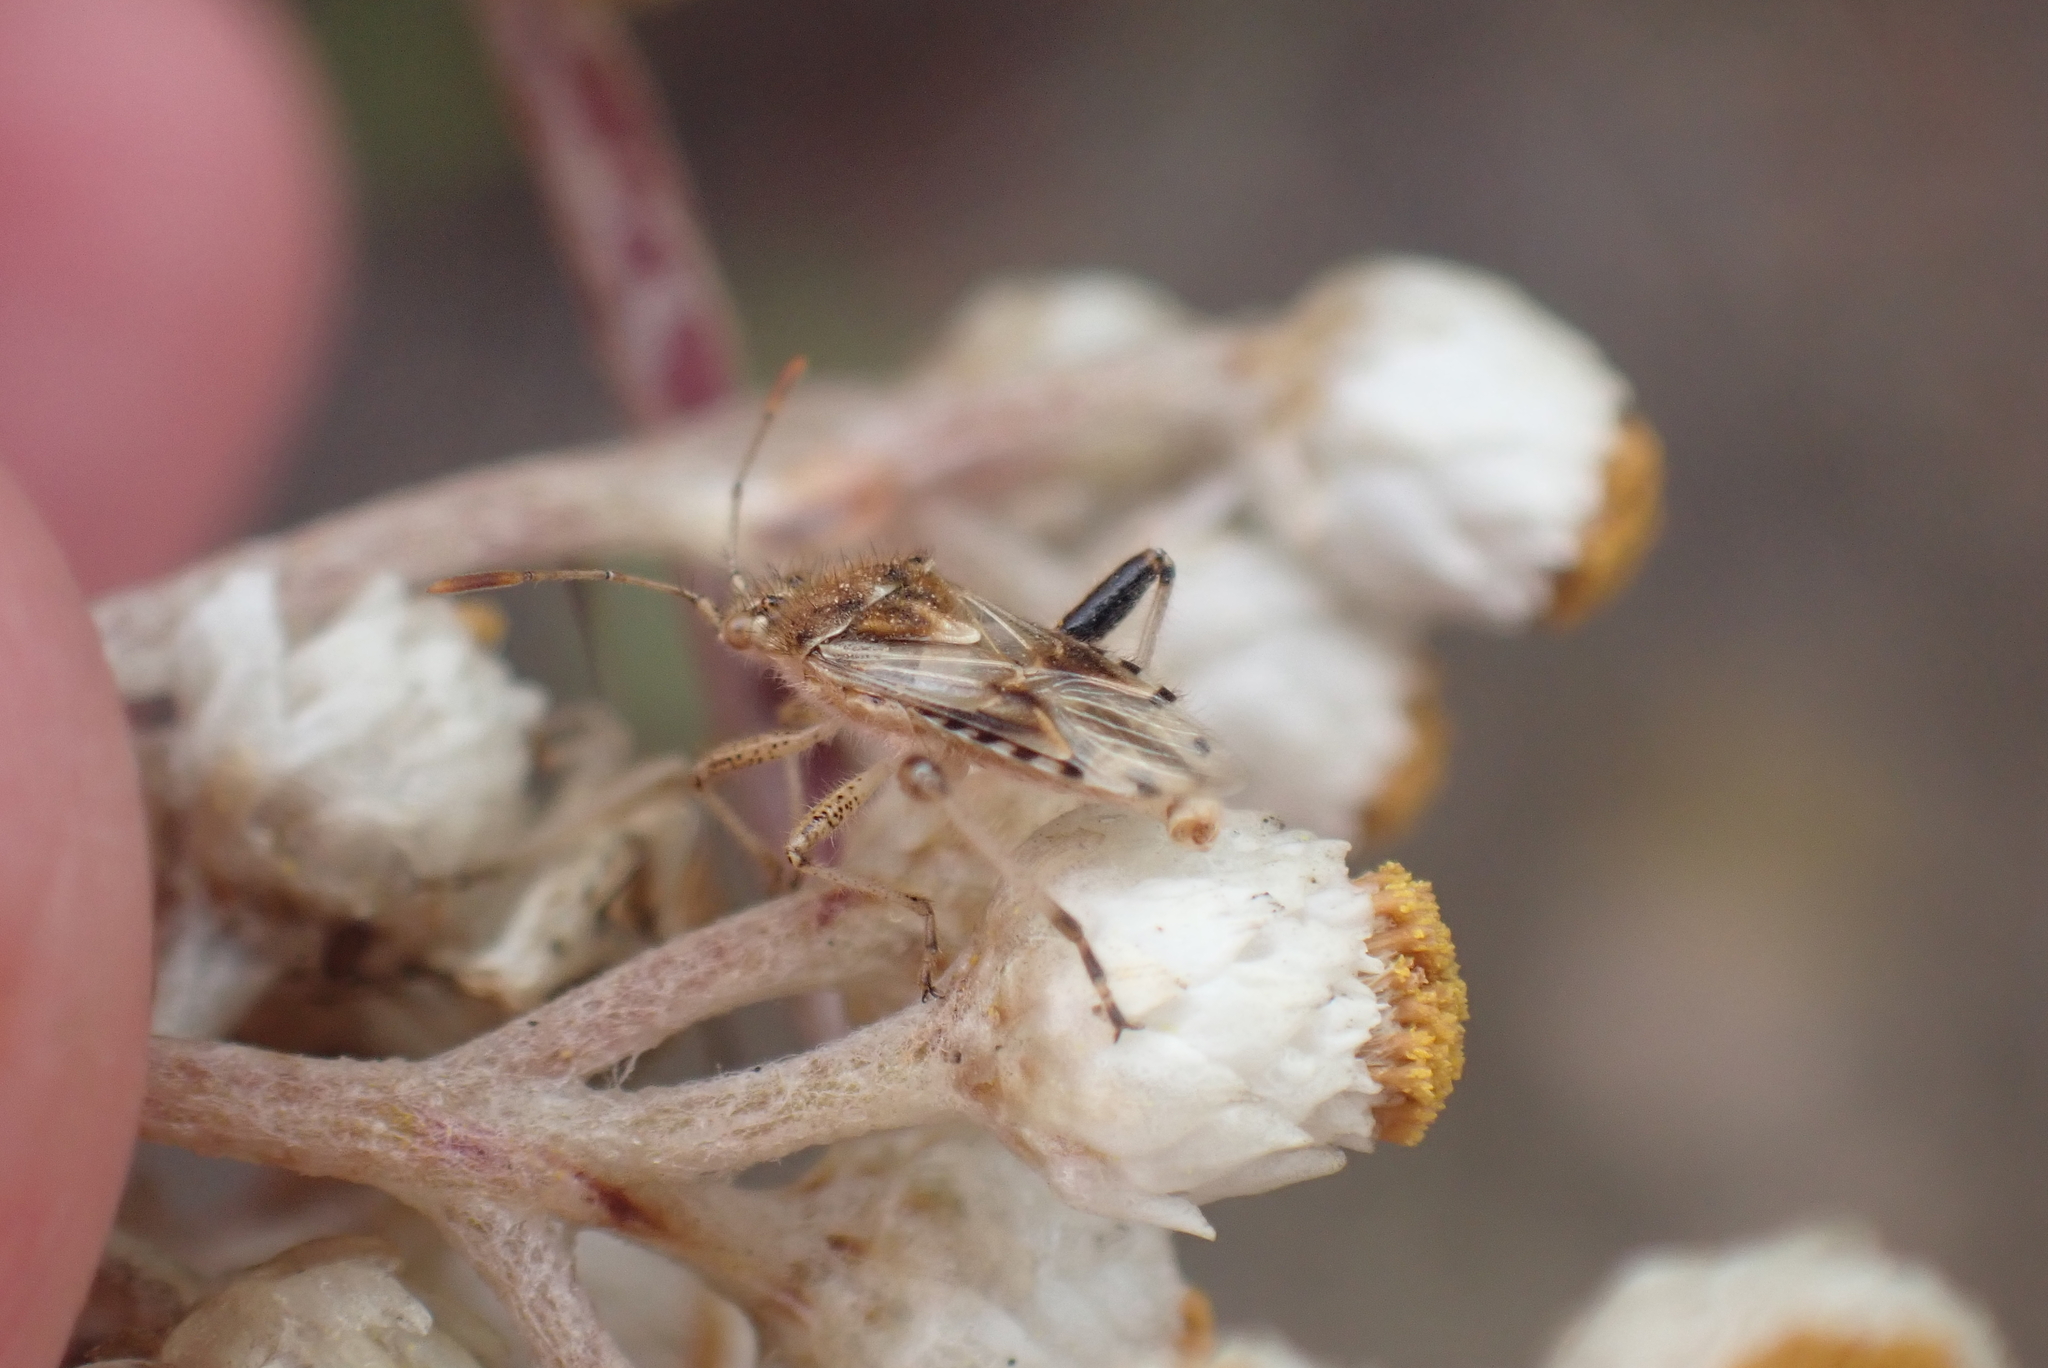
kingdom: Animalia
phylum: Arthropoda
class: Insecta
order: Hemiptera
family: Rhopalidae
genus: Stictopleurus
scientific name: Stictopleurus scutellaris
